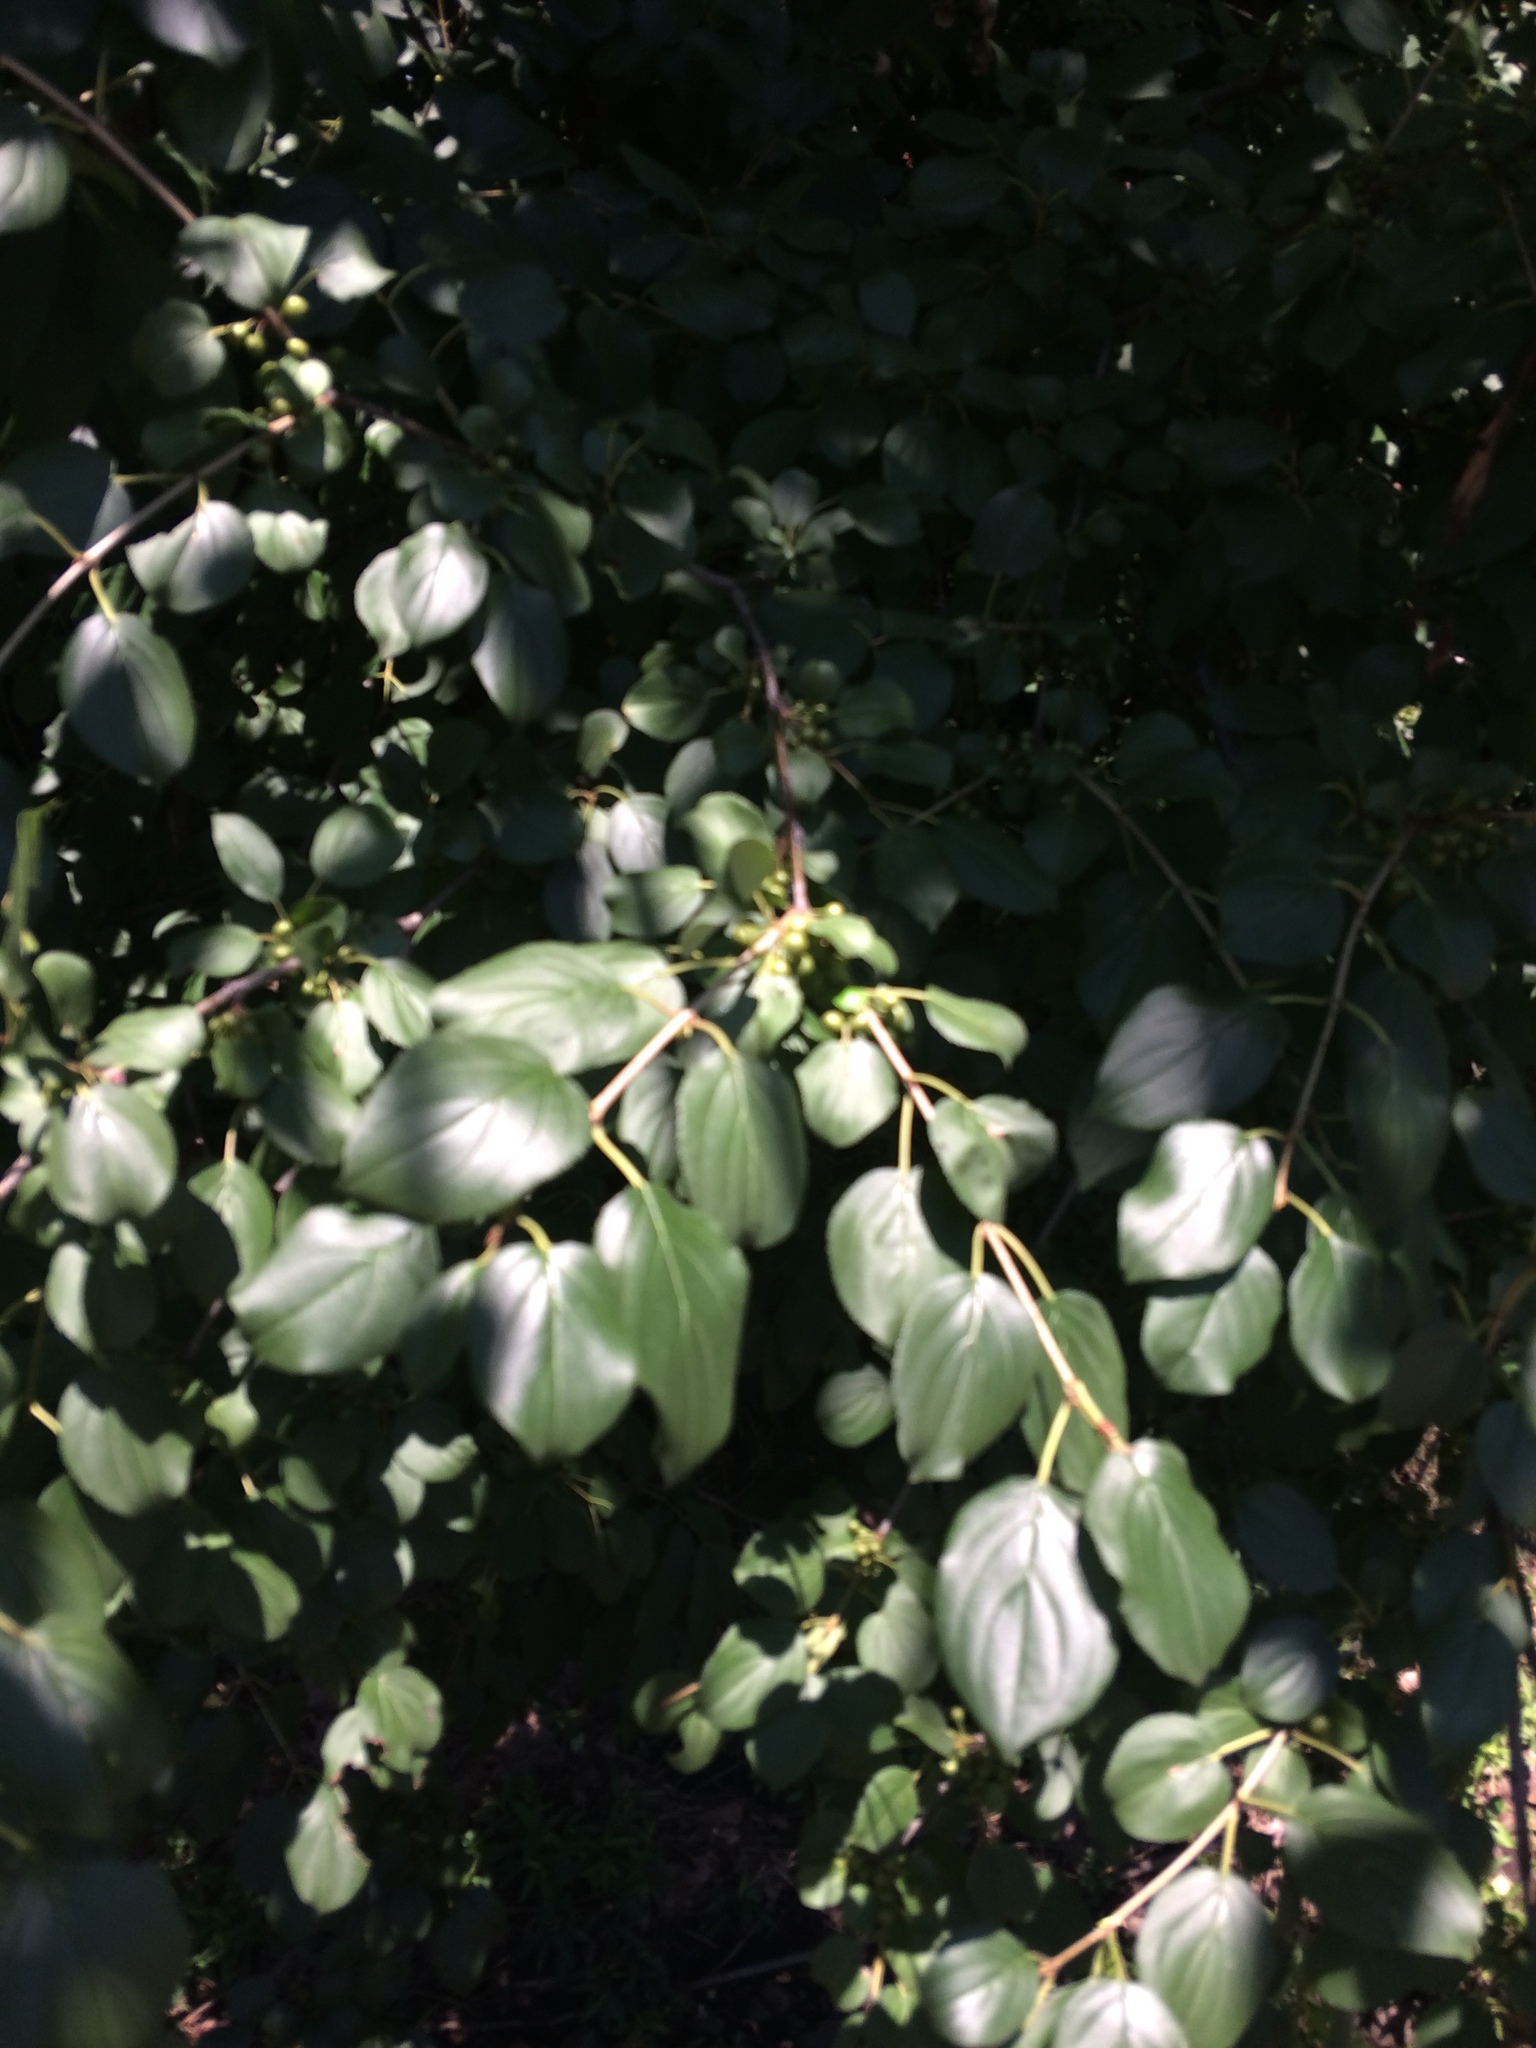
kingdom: Plantae
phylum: Tracheophyta
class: Magnoliopsida
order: Rosales
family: Rhamnaceae
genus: Rhamnus
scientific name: Rhamnus cathartica
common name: Common buckthorn
